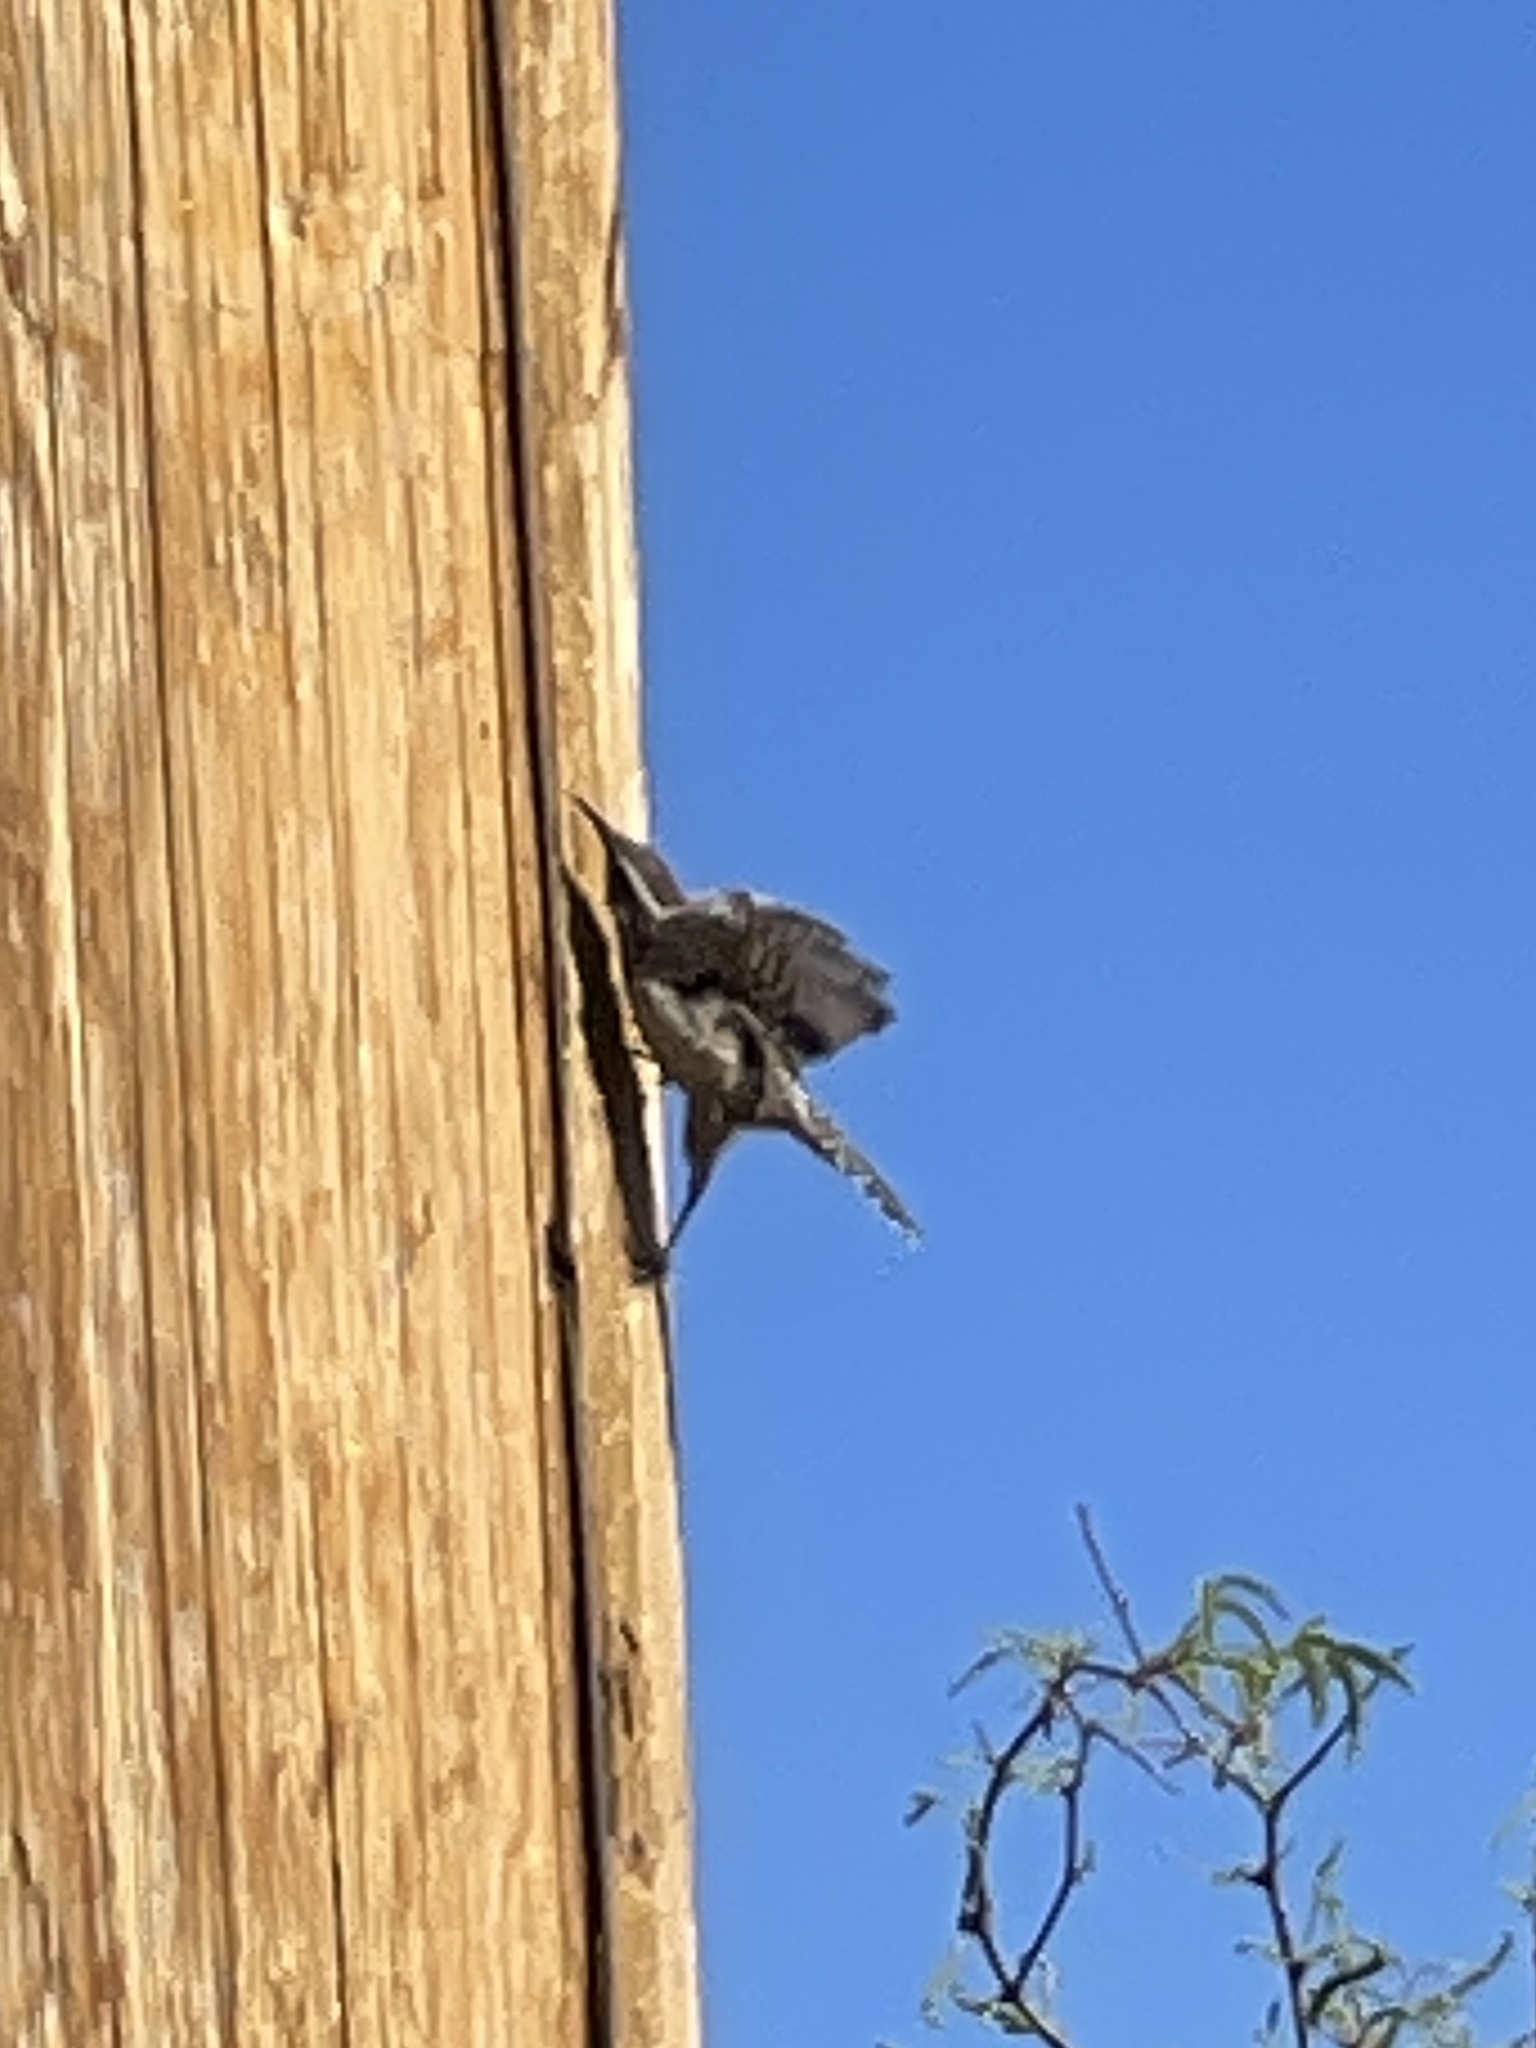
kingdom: Animalia
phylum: Chordata
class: Aves
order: Passeriformes
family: Troglodytidae
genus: Campylorhynchus
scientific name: Campylorhynchus brunneicapillus
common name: Cactus wren
